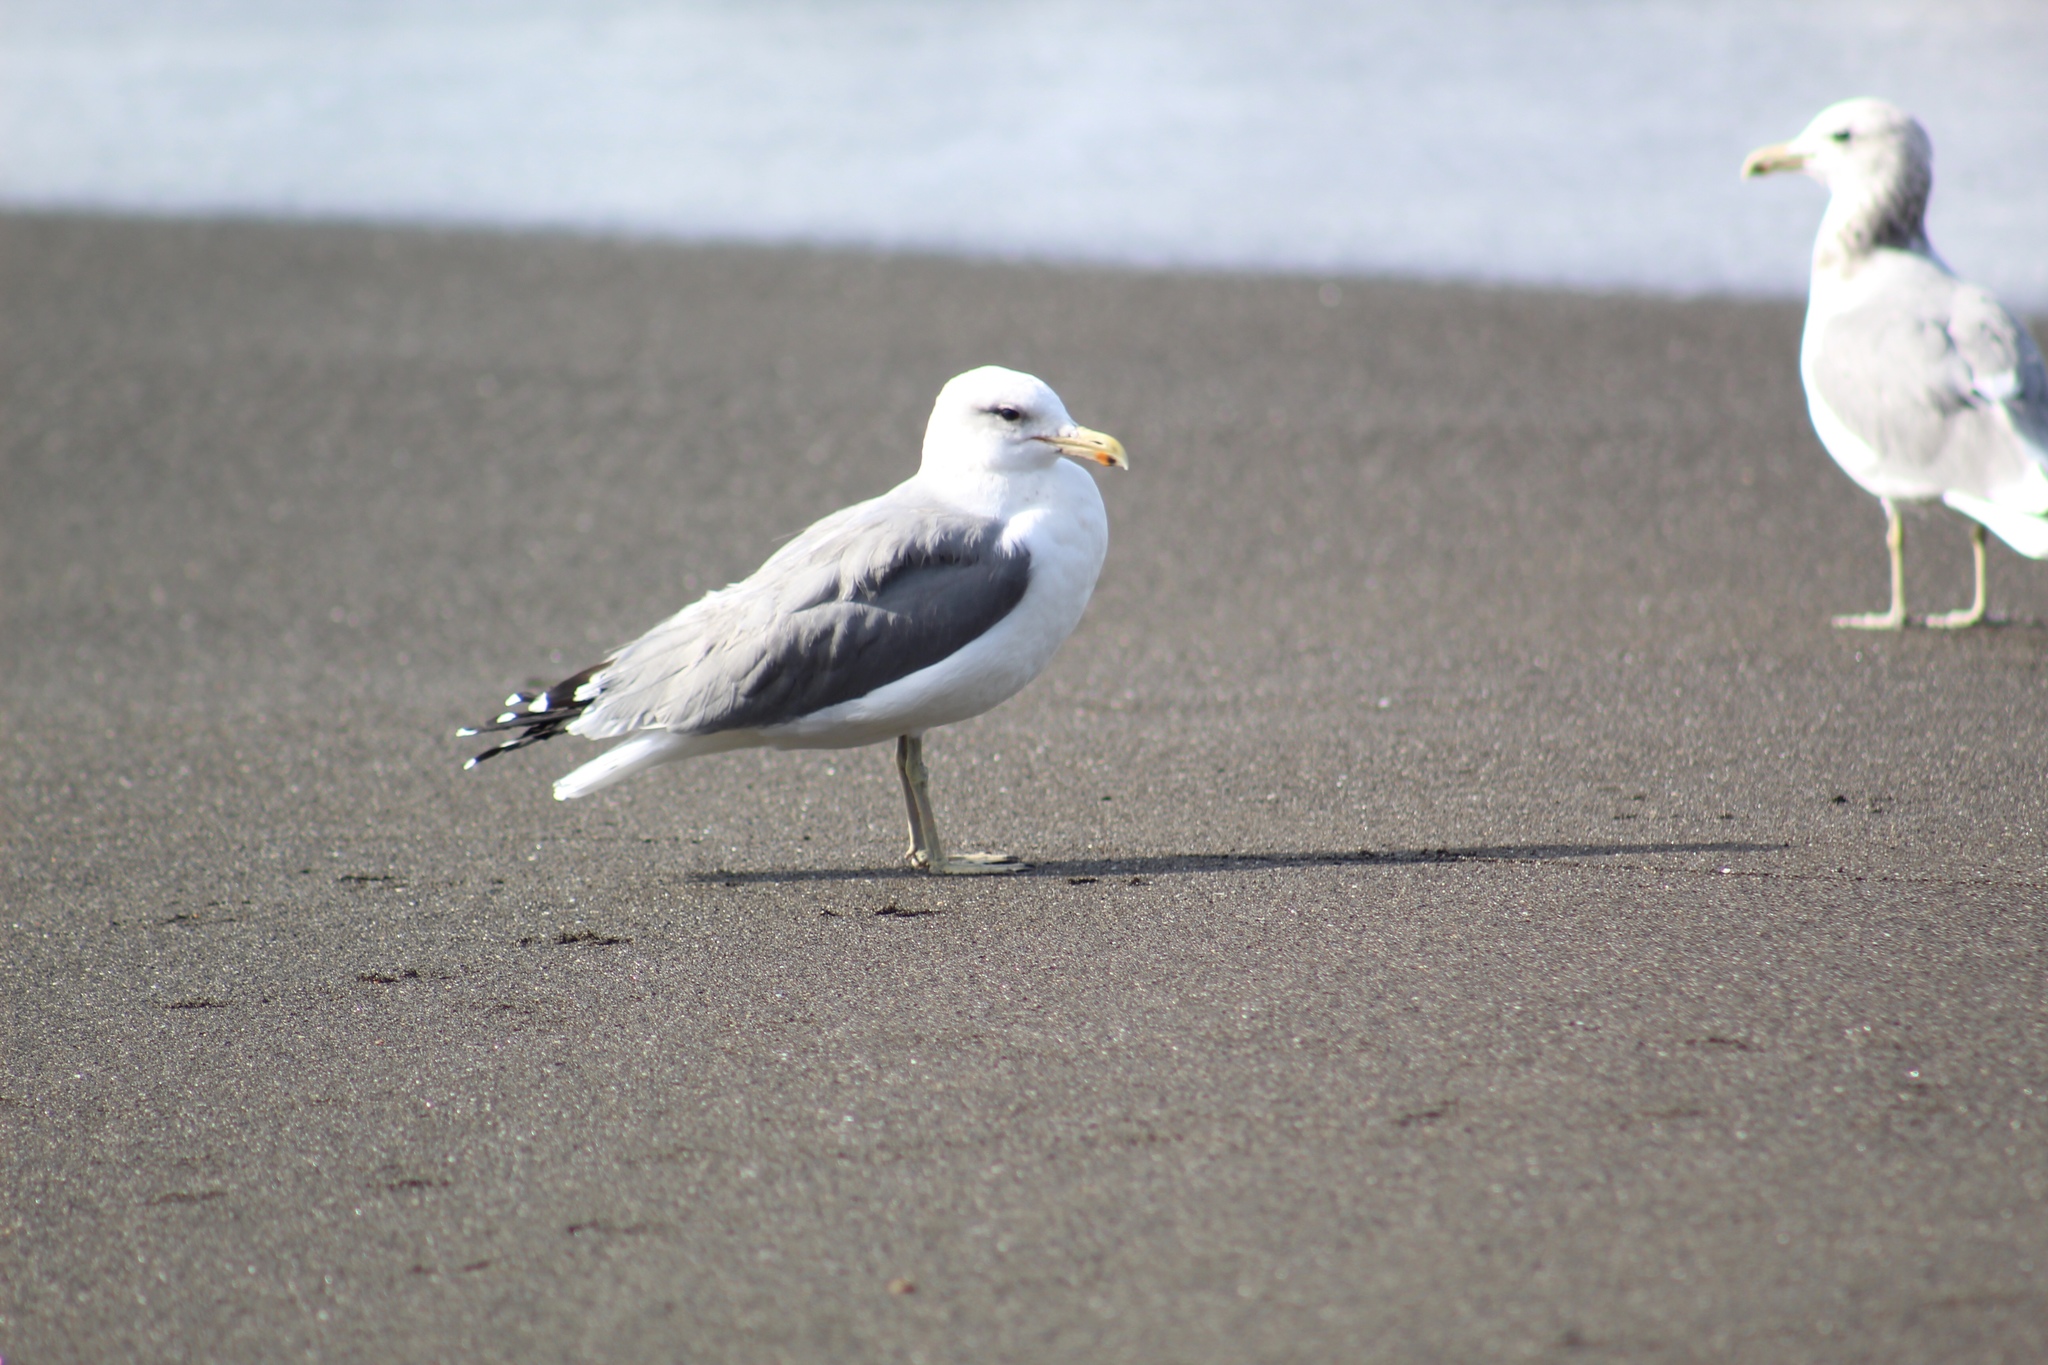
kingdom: Animalia
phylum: Chordata
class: Aves
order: Charadriiformes
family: Laridae
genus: Larus
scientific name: Larus californicus
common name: California gull
